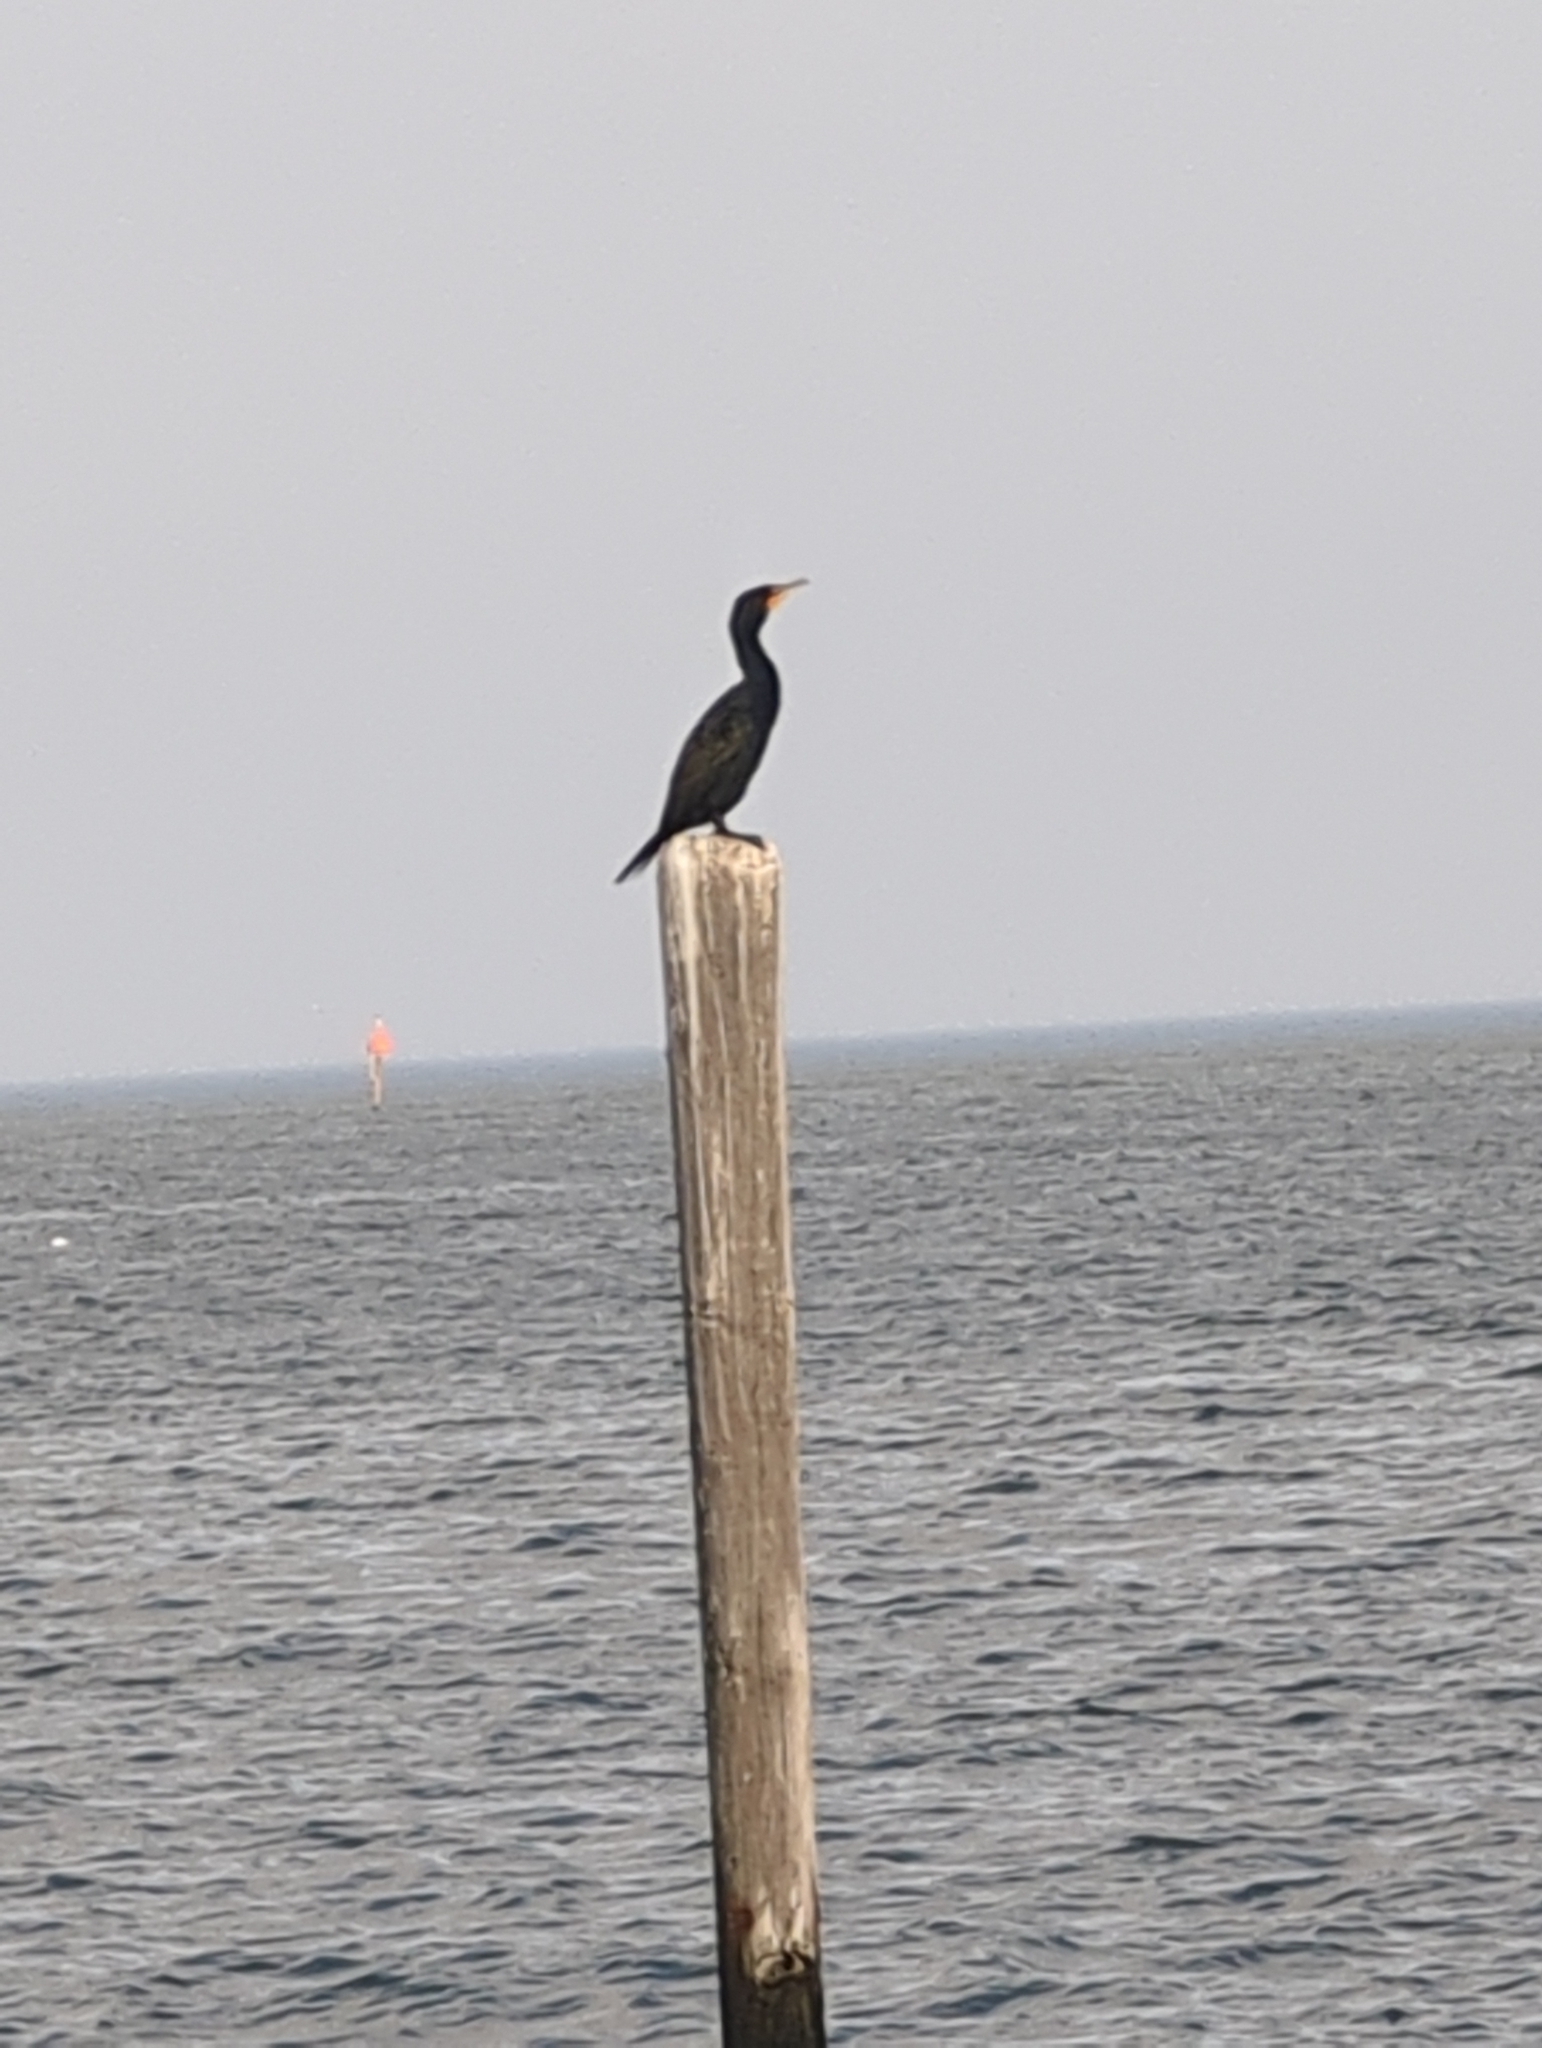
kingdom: Animalia
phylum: Chordata
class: Aves
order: Suliformes
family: Phalacrocoracidae
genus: Phalacrocorax
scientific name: Phalacrocorax auritus
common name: Double-crested cormorant
